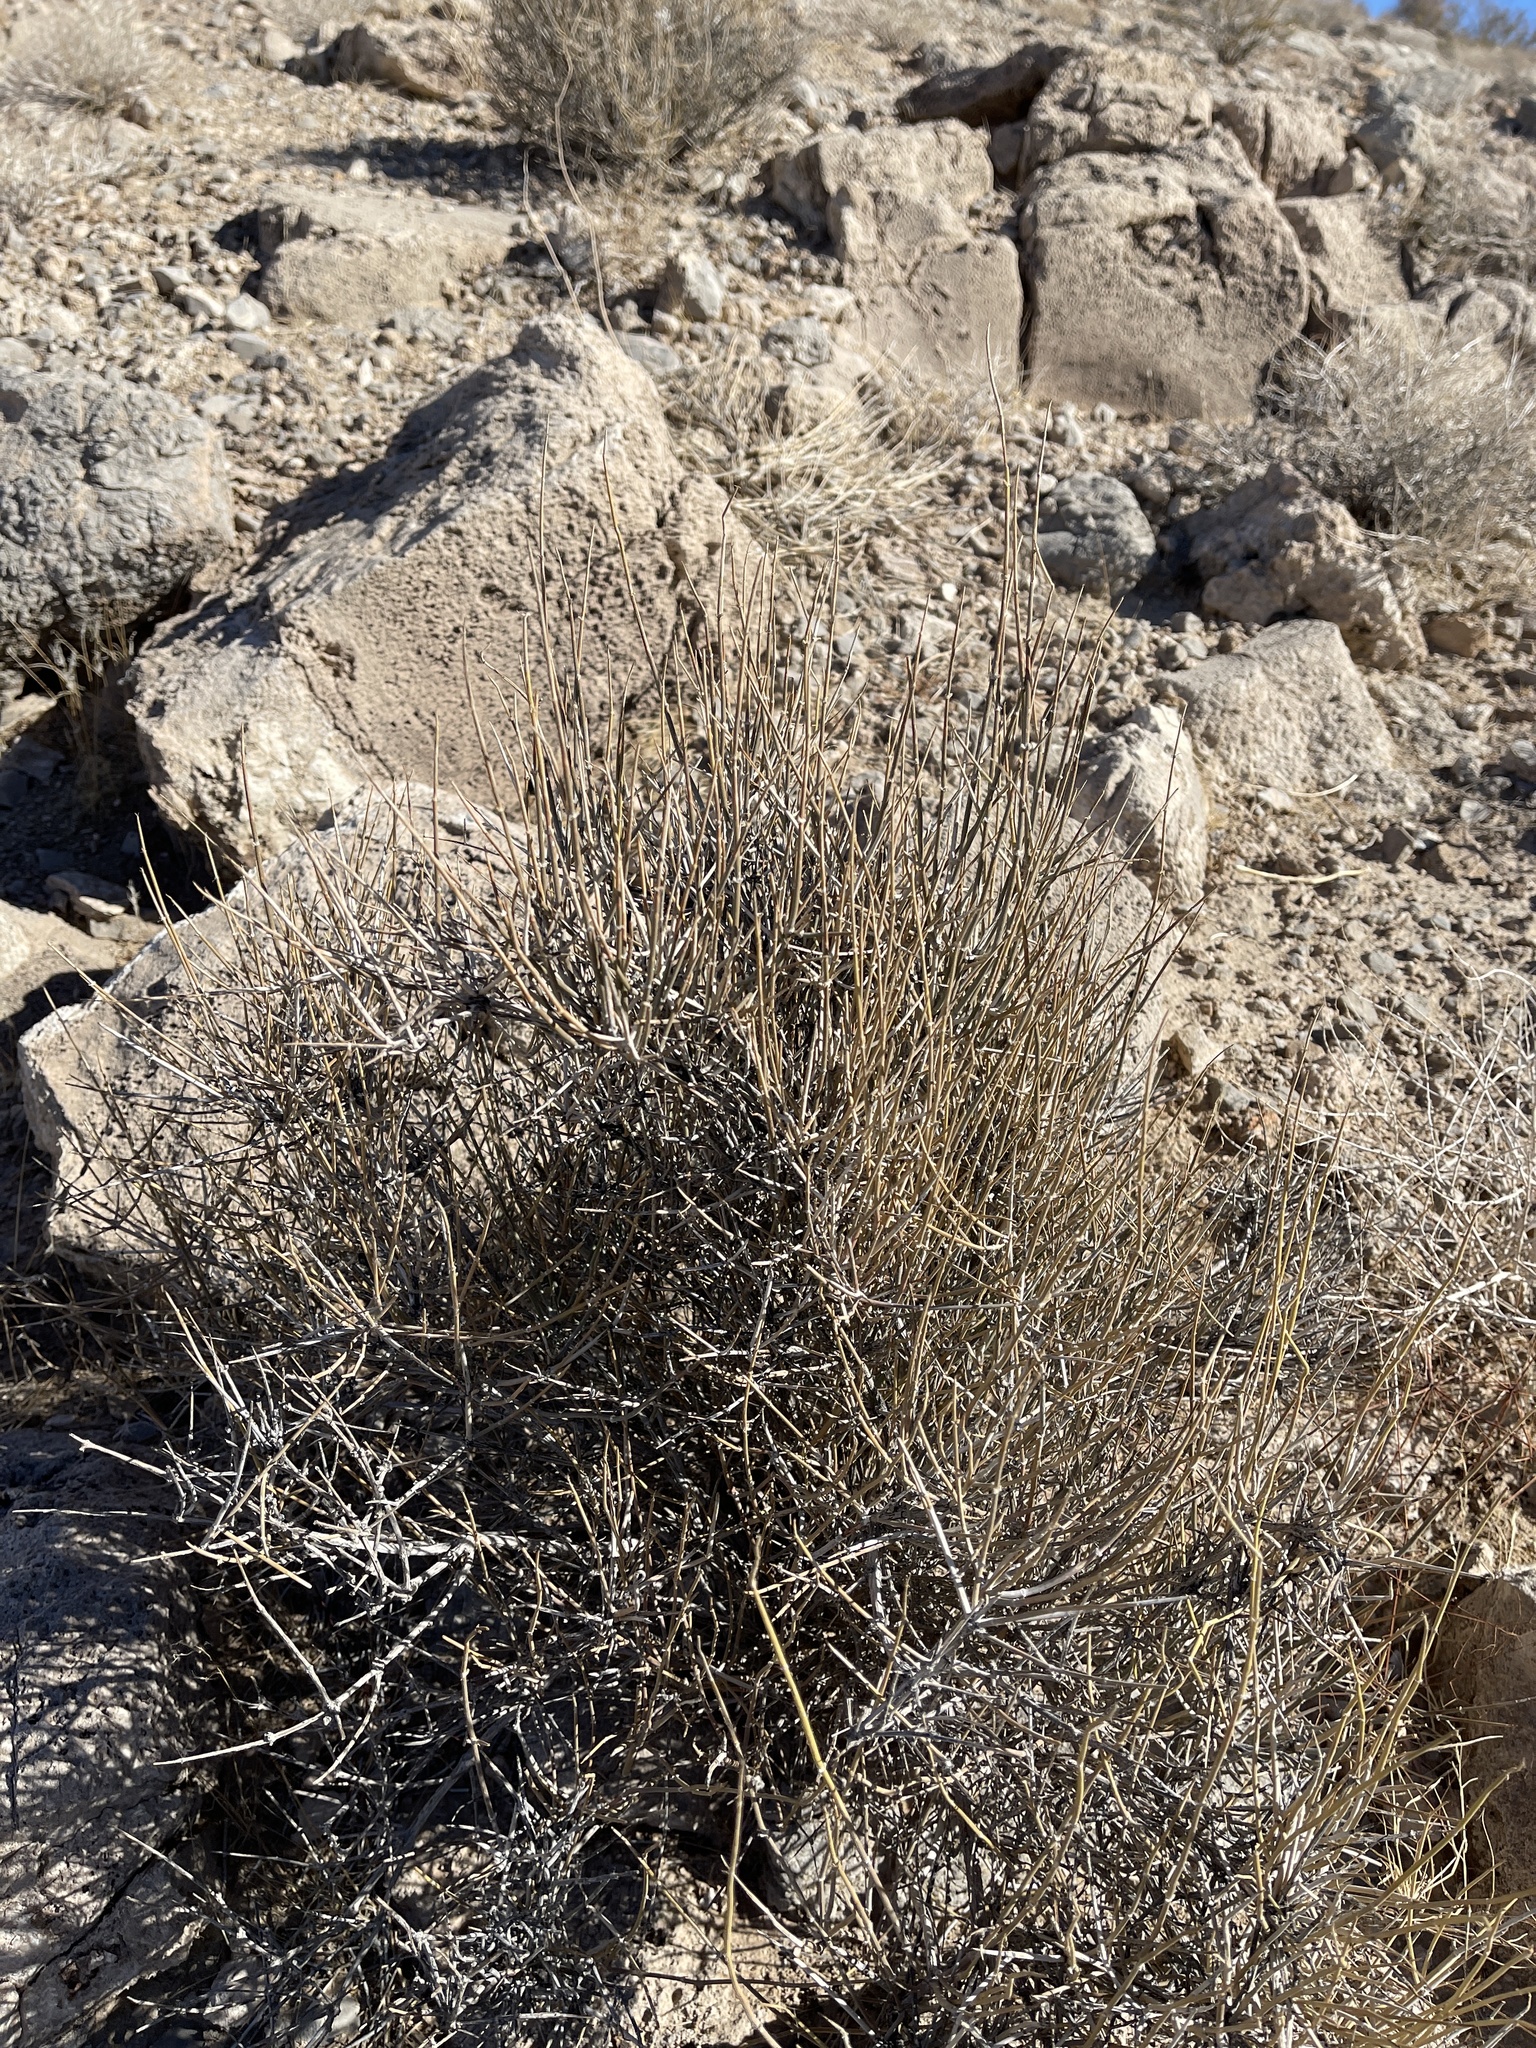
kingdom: Plantae
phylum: Tracheophyta
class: Gnetopsida
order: Ephedrales
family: Ephedraceae
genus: Ephedra
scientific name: Ephedra nevadensis
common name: Gray ephedra
